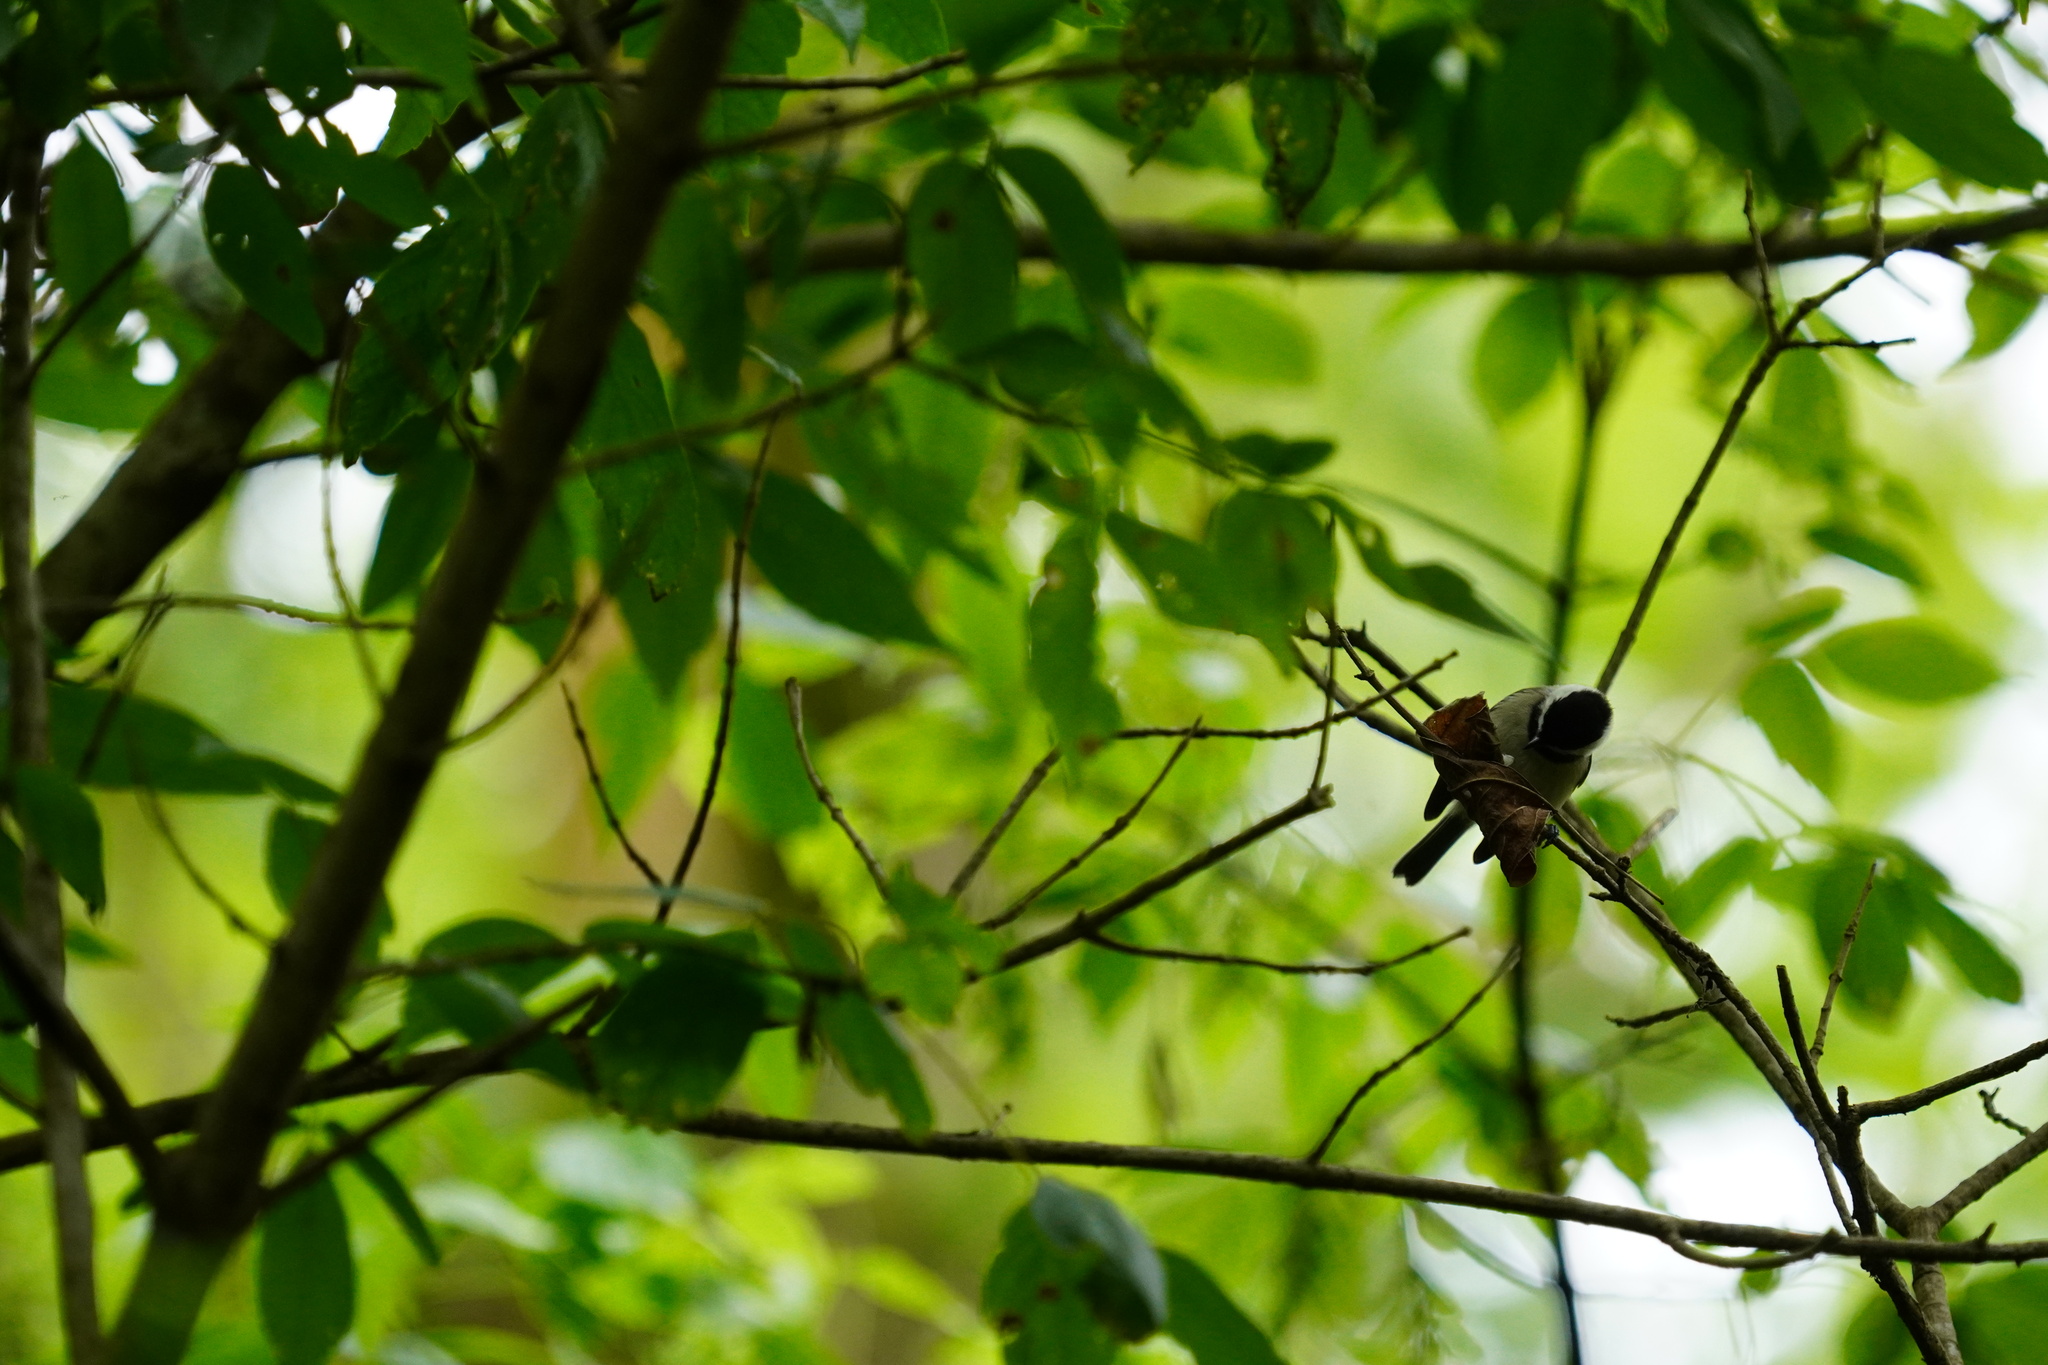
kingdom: Animalia
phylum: Chordata
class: Aves
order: Passeriformes
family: Paridae
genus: Poecile
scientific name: Poecile carolinensis
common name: Carolina chickadee
